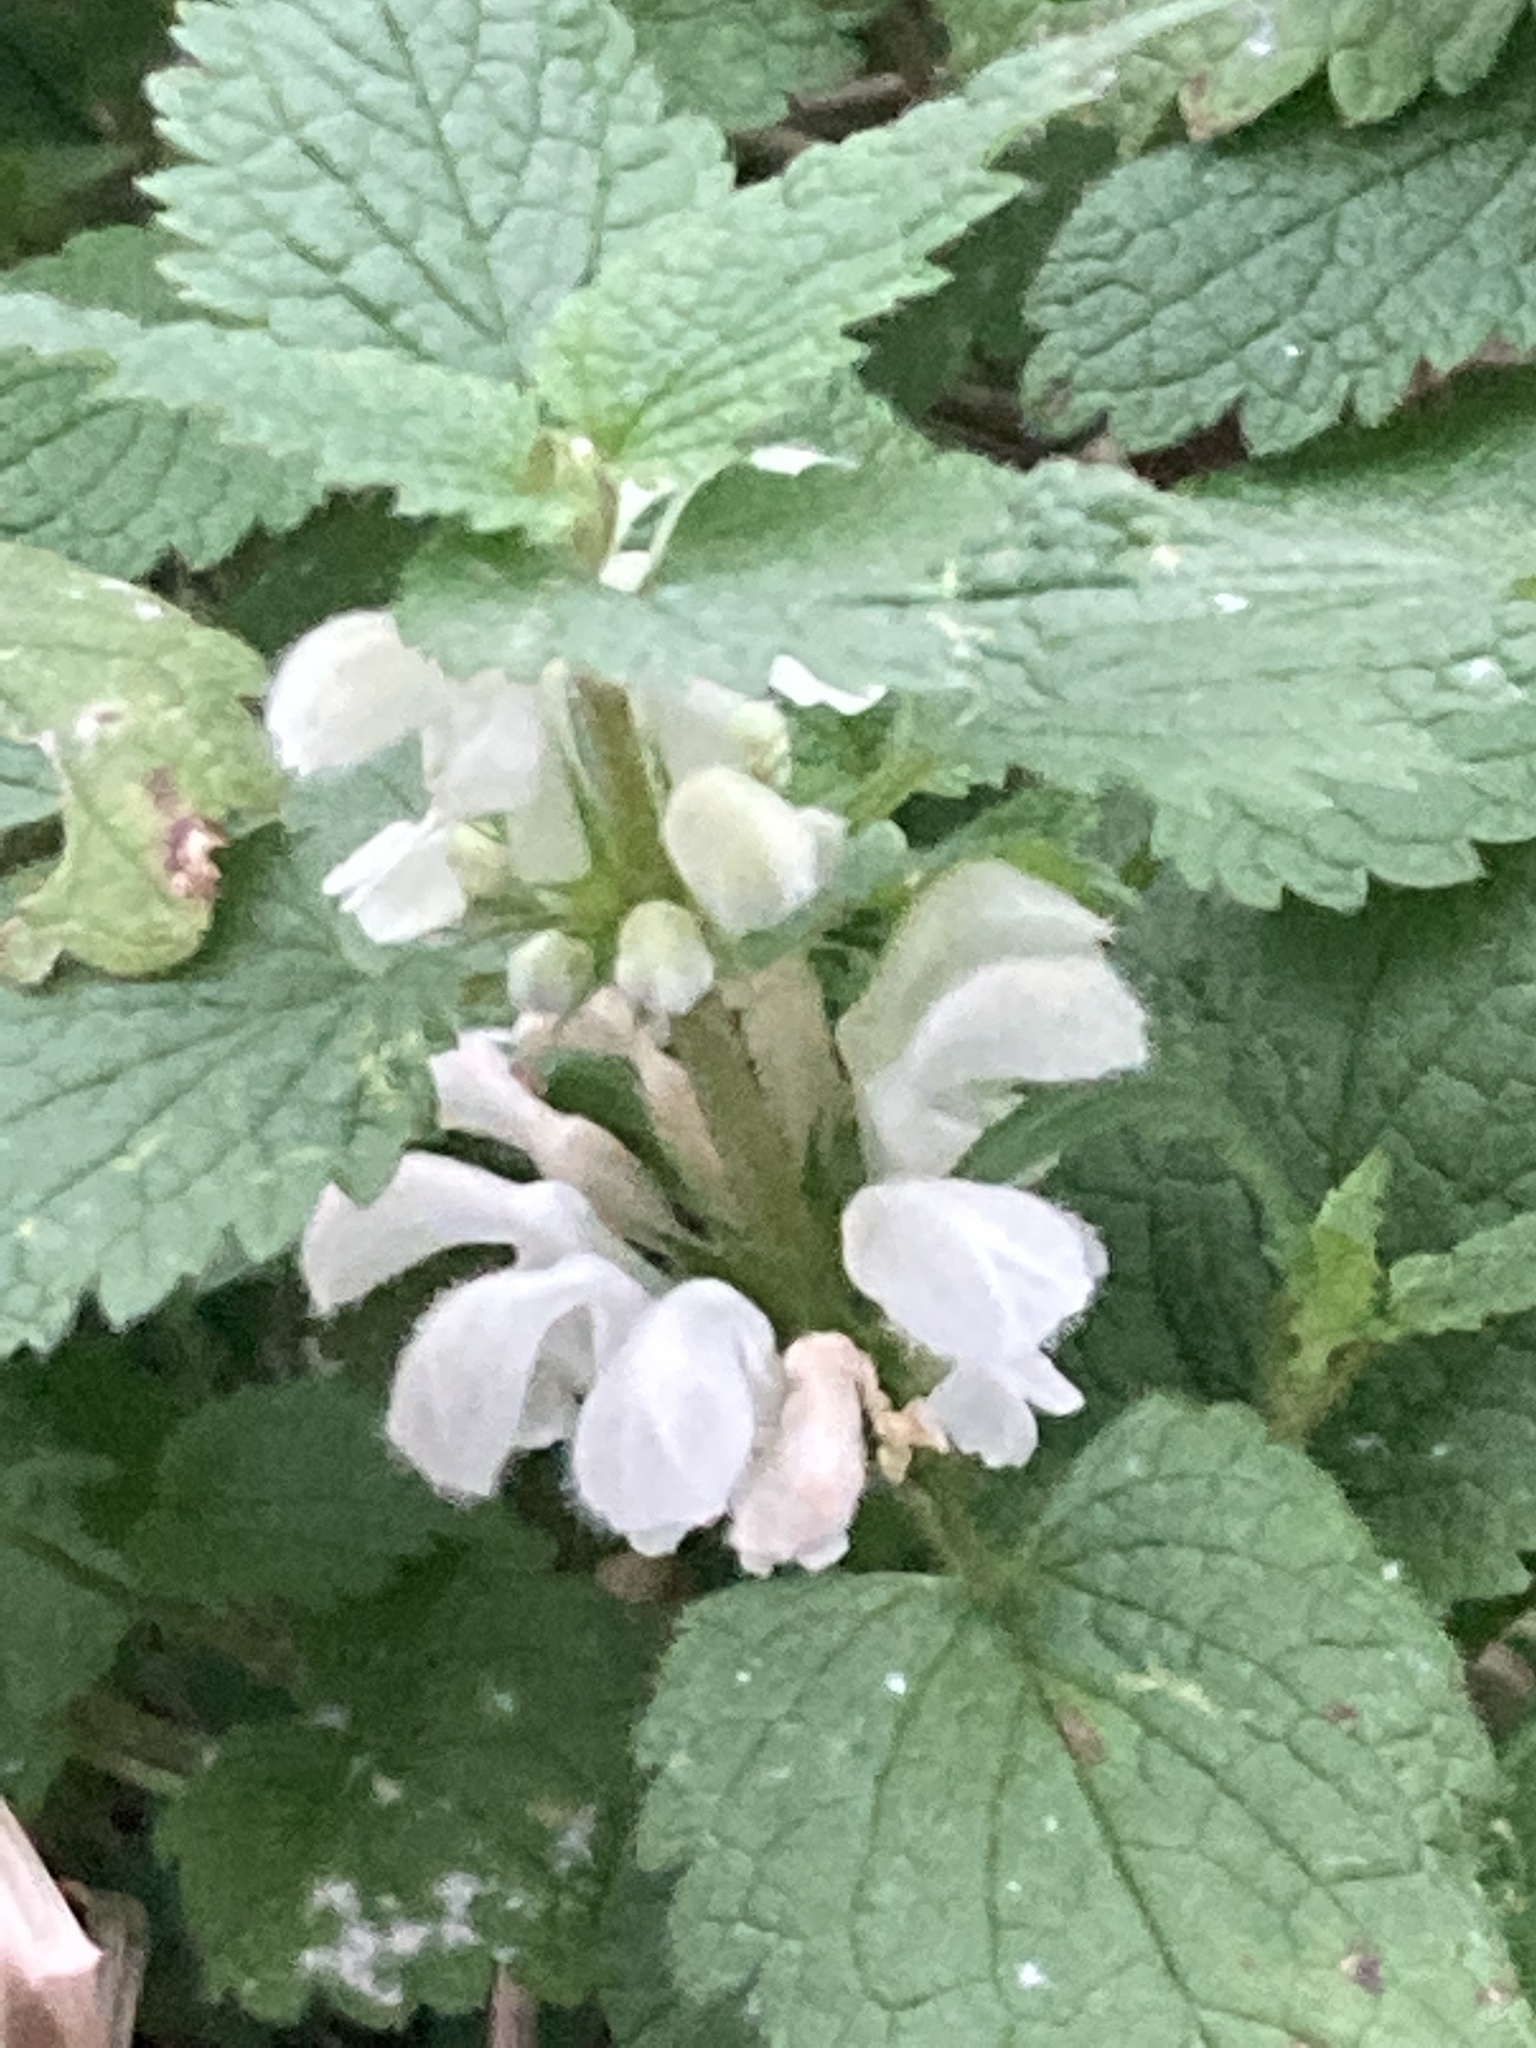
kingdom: Plantae
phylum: Tracheophyta
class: Magnoliopsida
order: Lamiales
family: Lamiaceae
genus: Lamium
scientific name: Lamium album
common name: White dead-nettle
